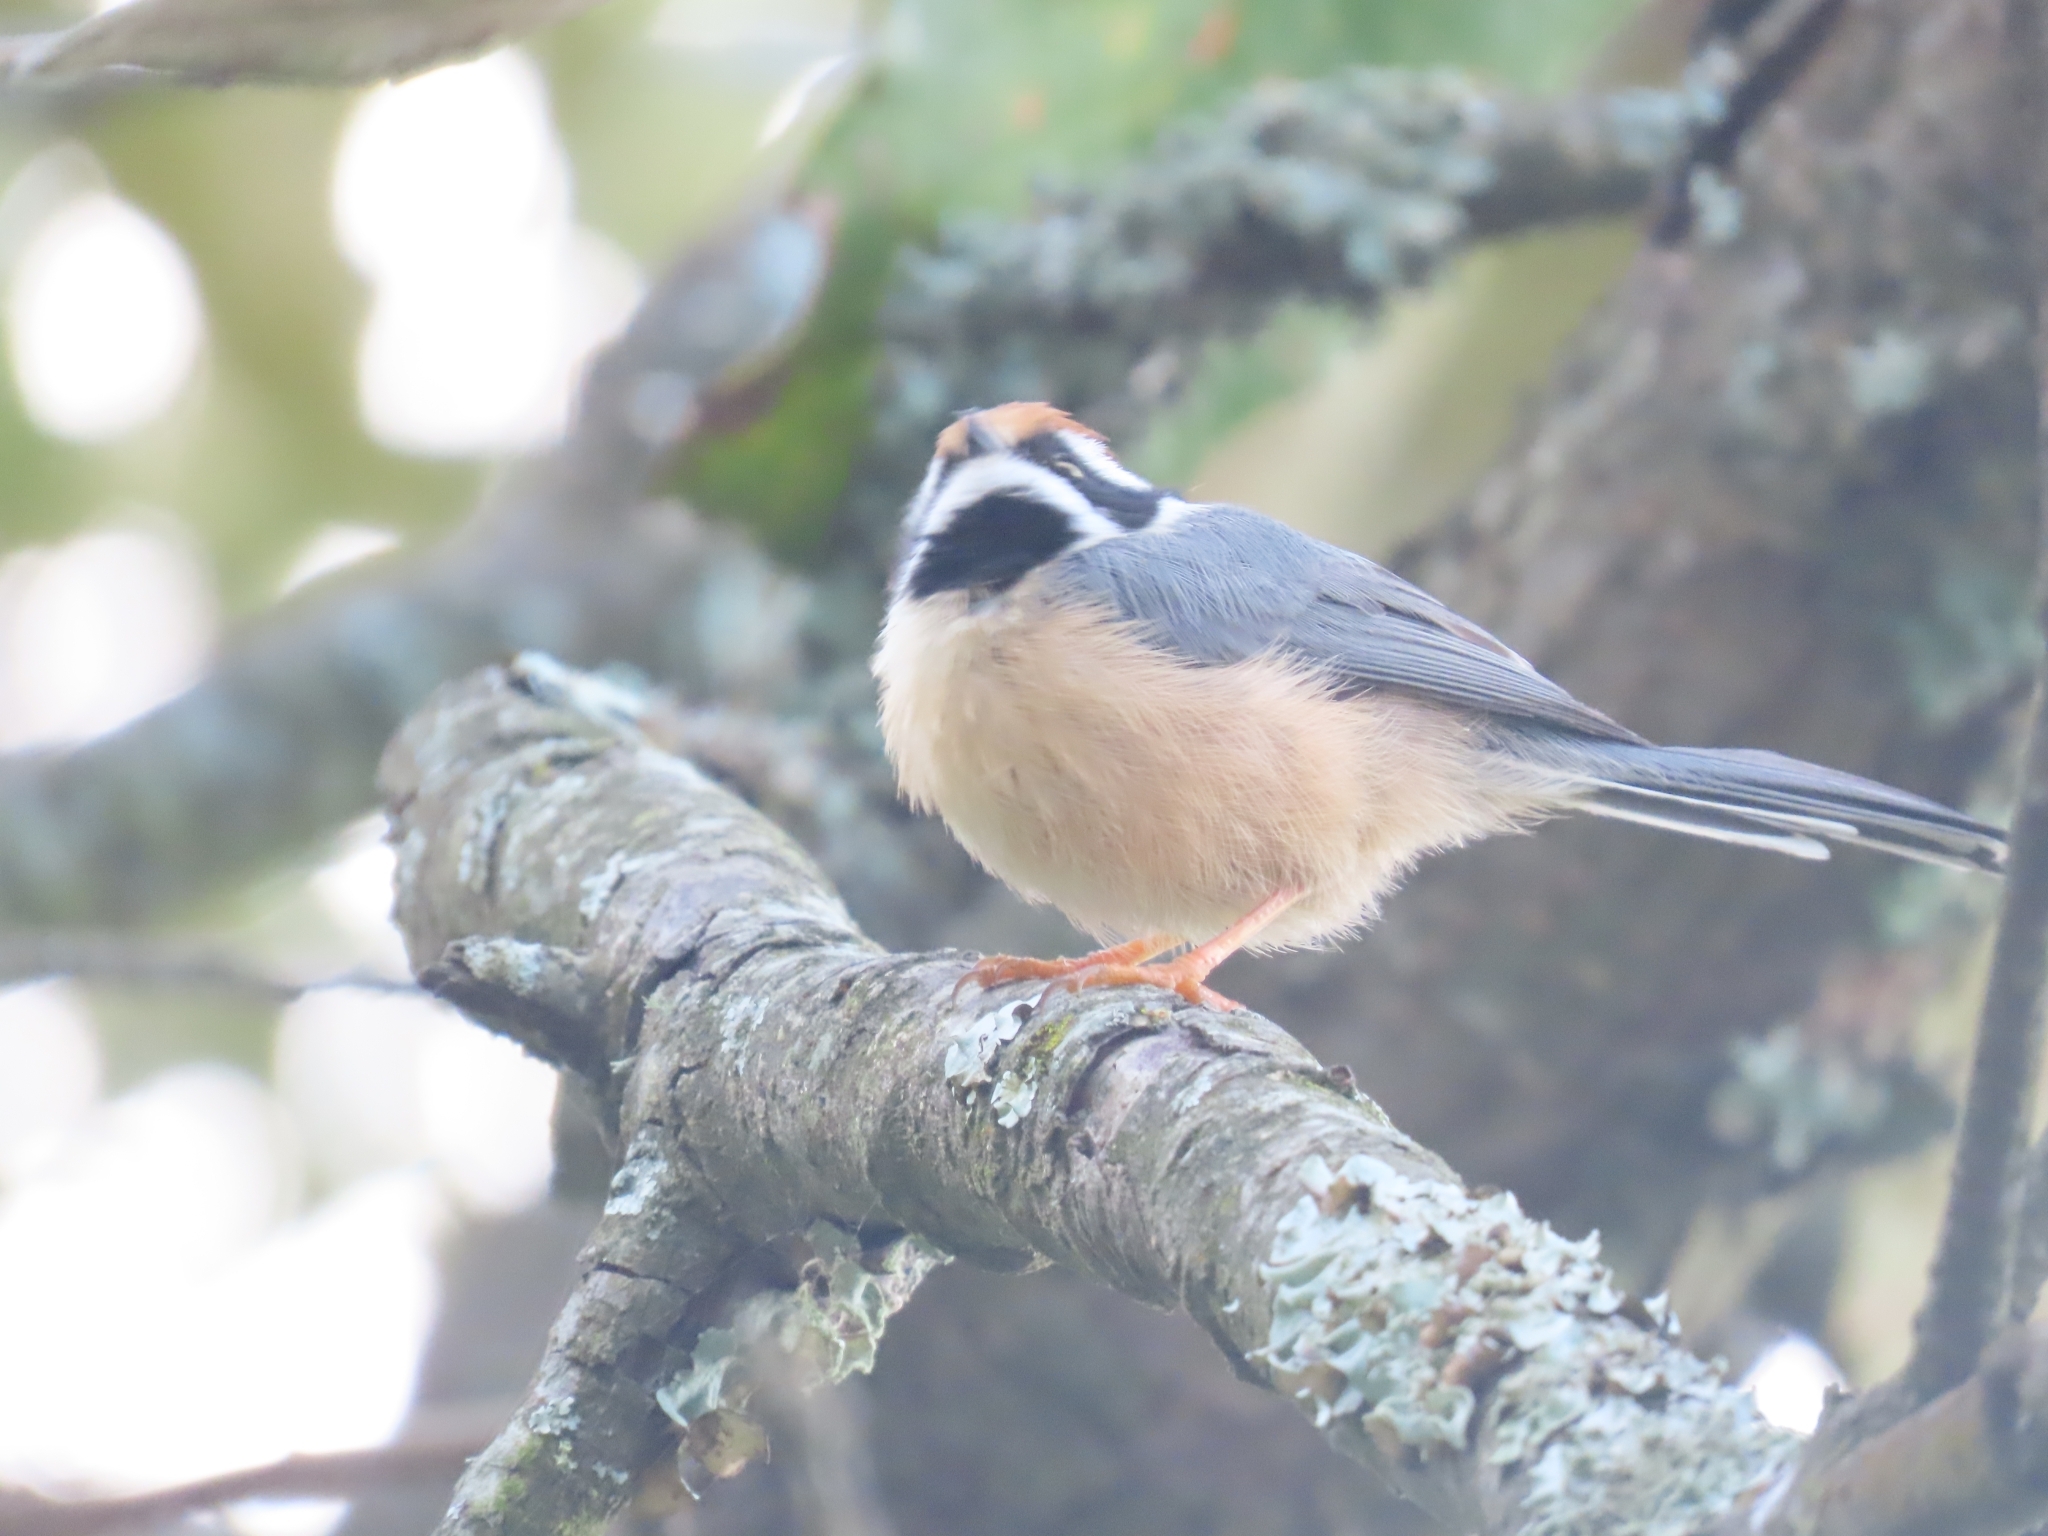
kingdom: Animalia
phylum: Chordata
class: Aves
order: Passeriformes
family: Aegithalidae
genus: Aegithalos
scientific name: Aegithalos concinnus
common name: Black-throated bushtit
